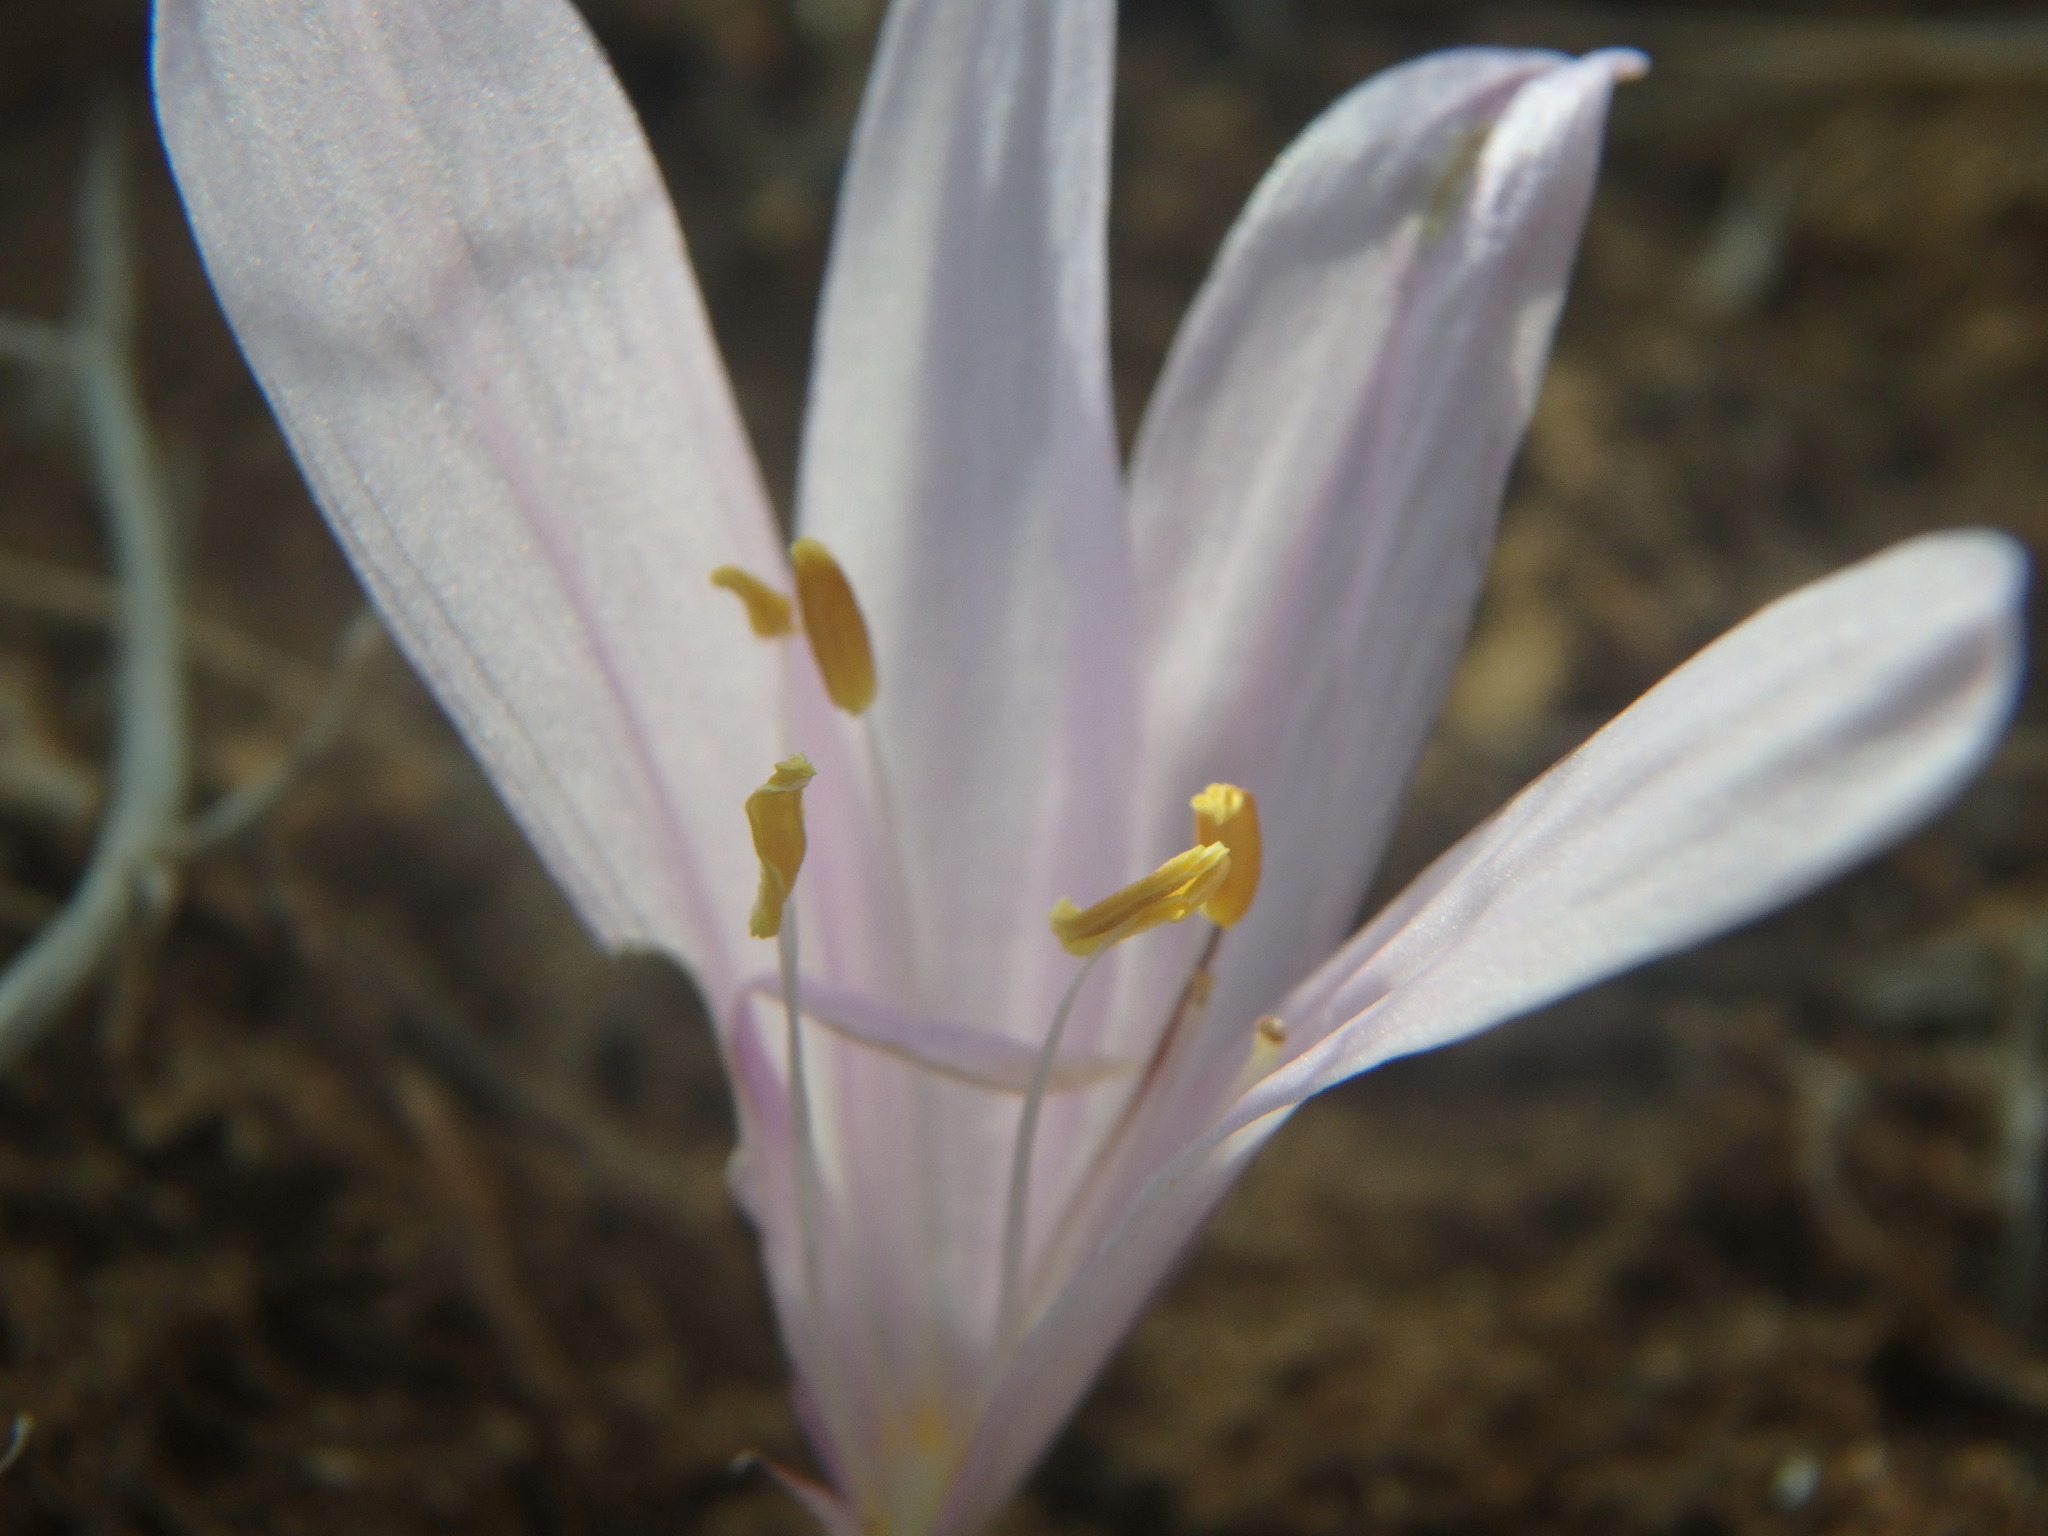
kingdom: Plantae
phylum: Tracheophyta
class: Liliopsida
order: Liliales
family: Colchicaceae
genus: Colchicum
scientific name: Colchicum troodi
